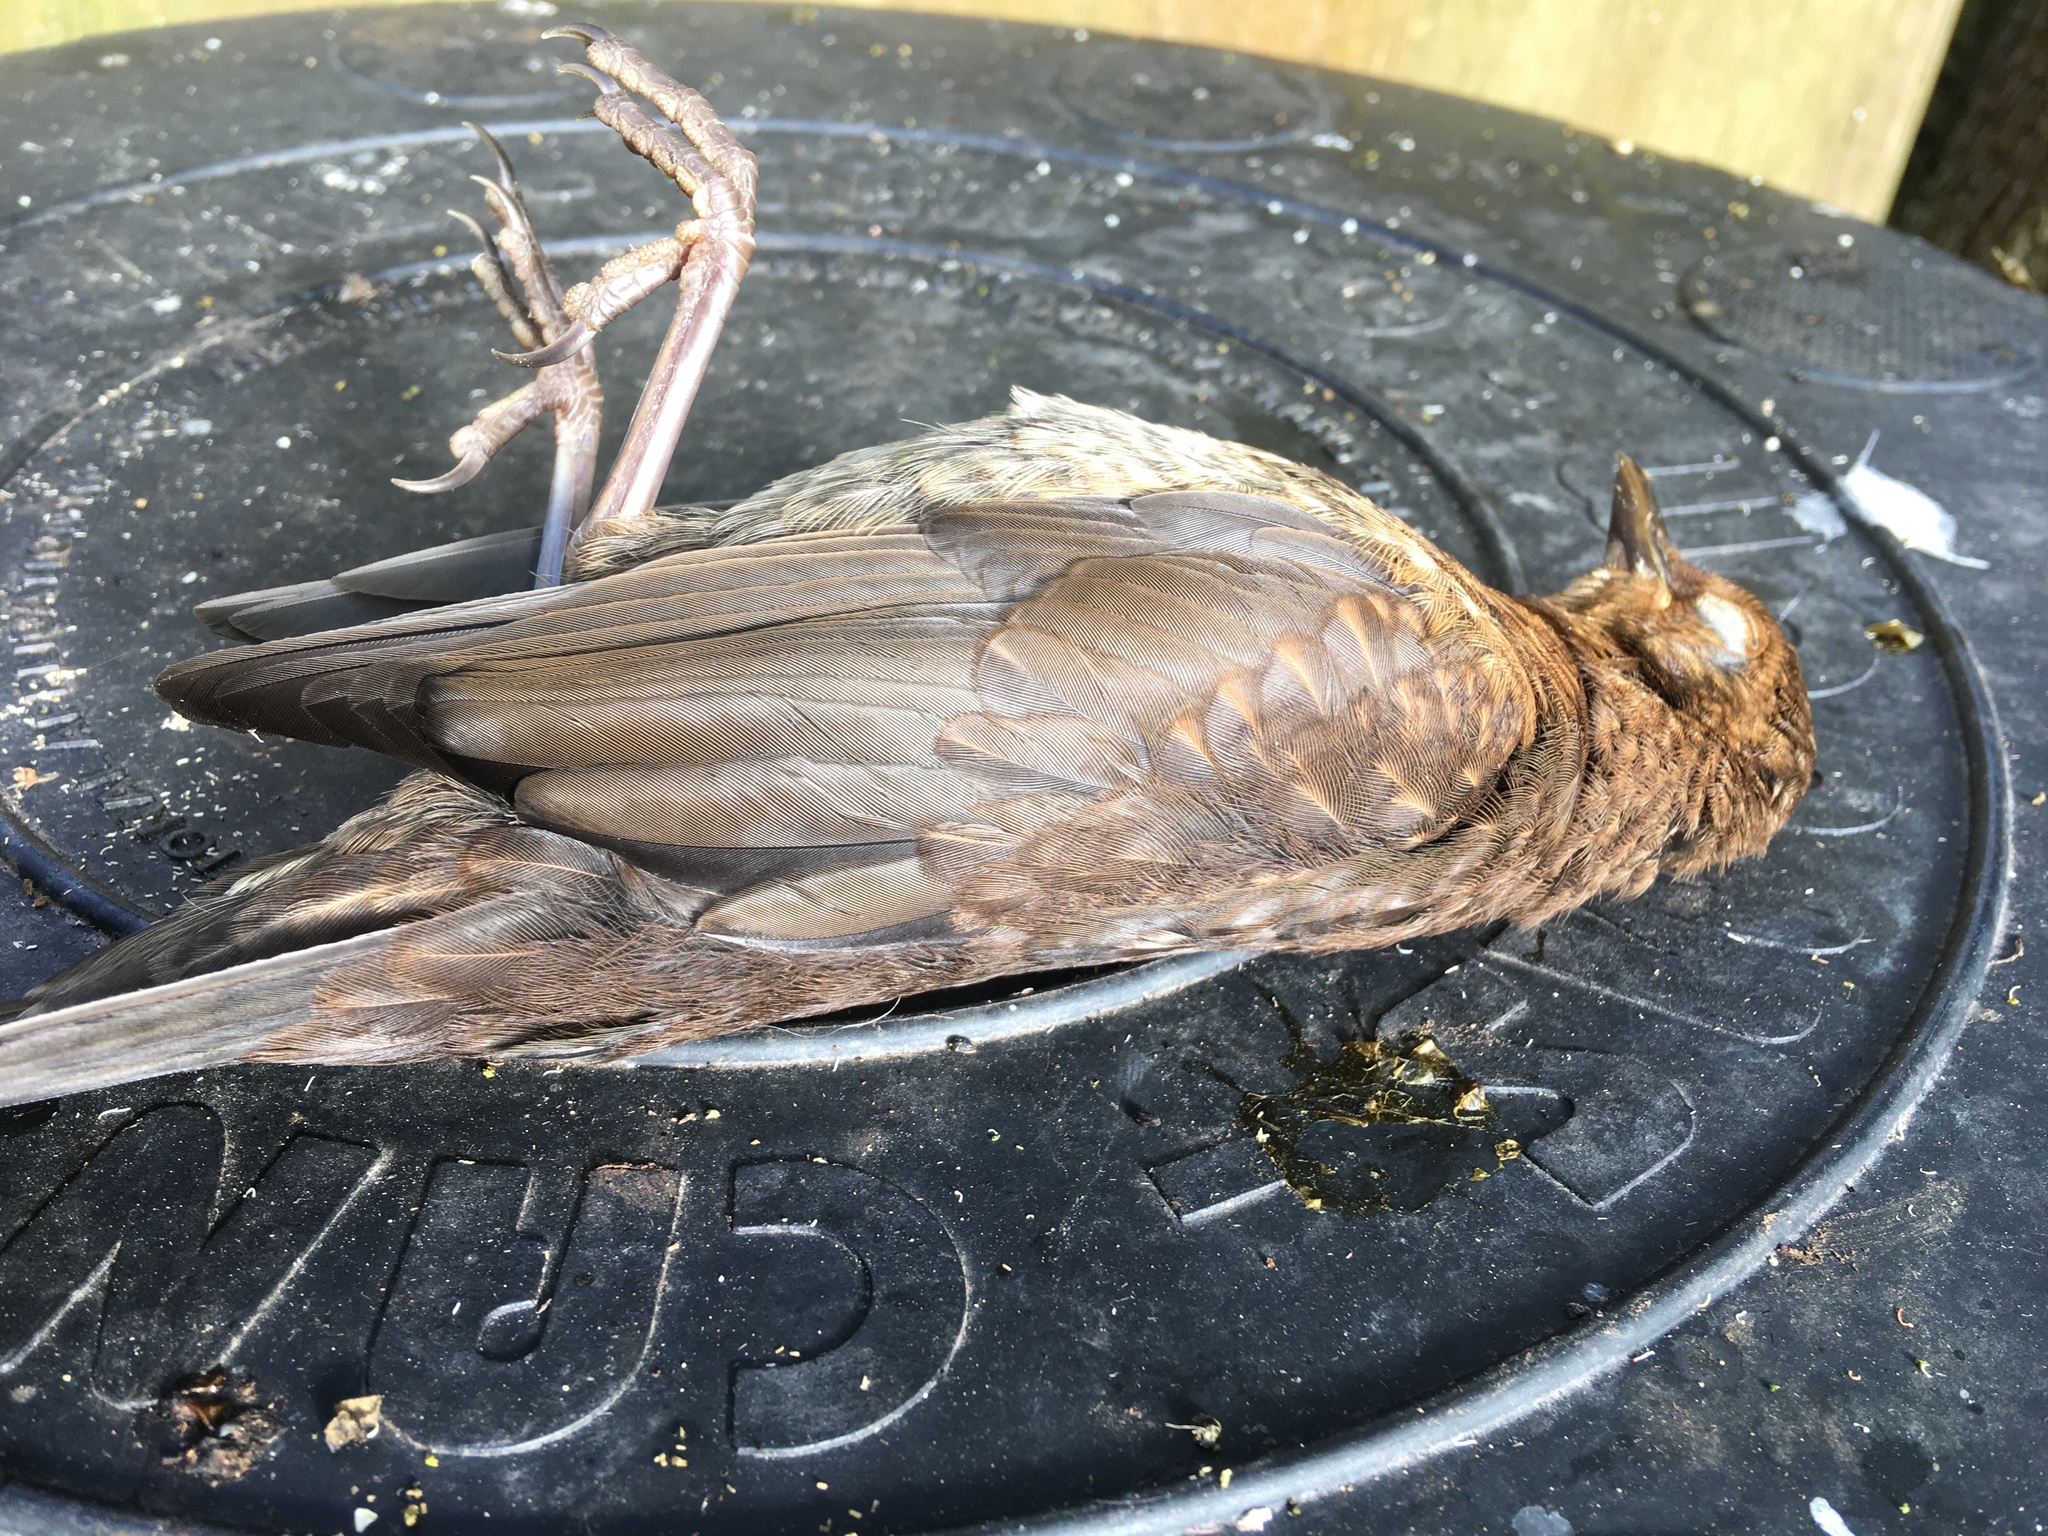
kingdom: Animalia
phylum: Chordata
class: Aves
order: Passeriformes
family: Turdidae
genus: Turdus
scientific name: Turdus merula
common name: Common blackbird
